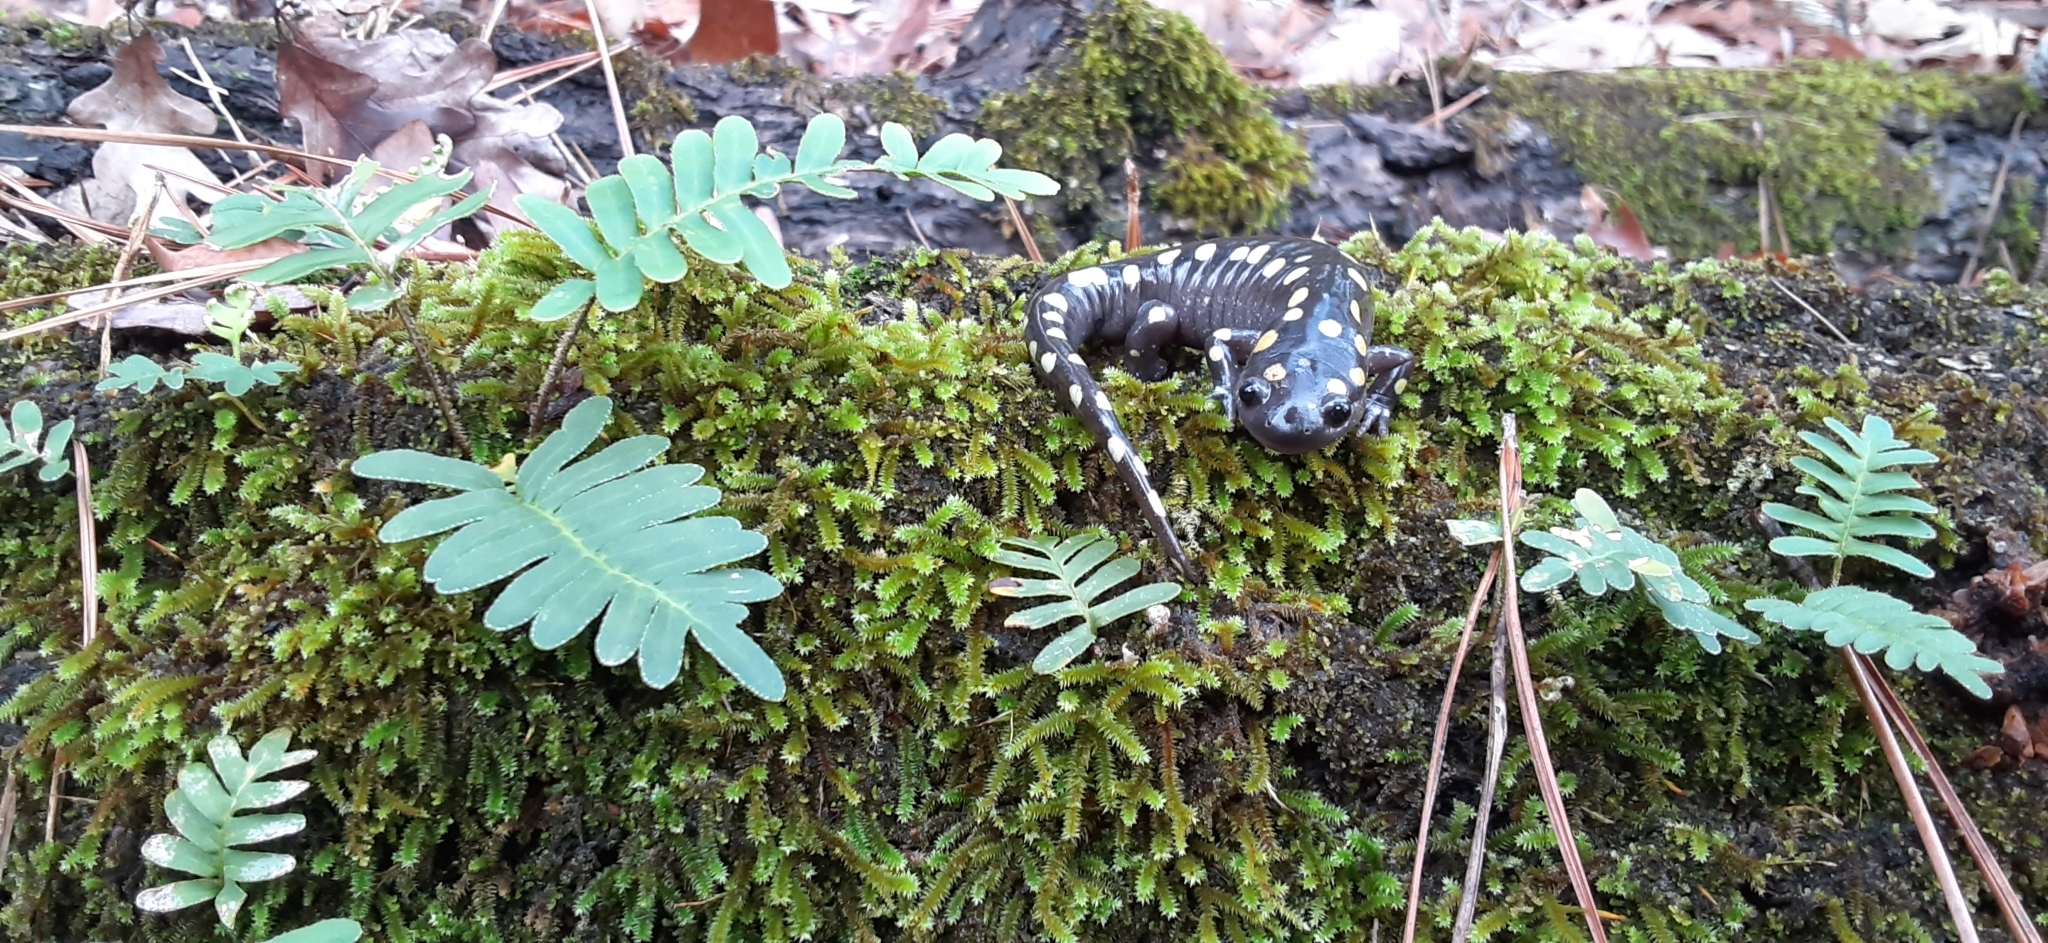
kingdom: Animalia
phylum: Chordata
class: Amphibia
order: Caudata
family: Ambystomatidae
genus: Ambystoma
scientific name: Ambystoma maculatum
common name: Spotted salamander
